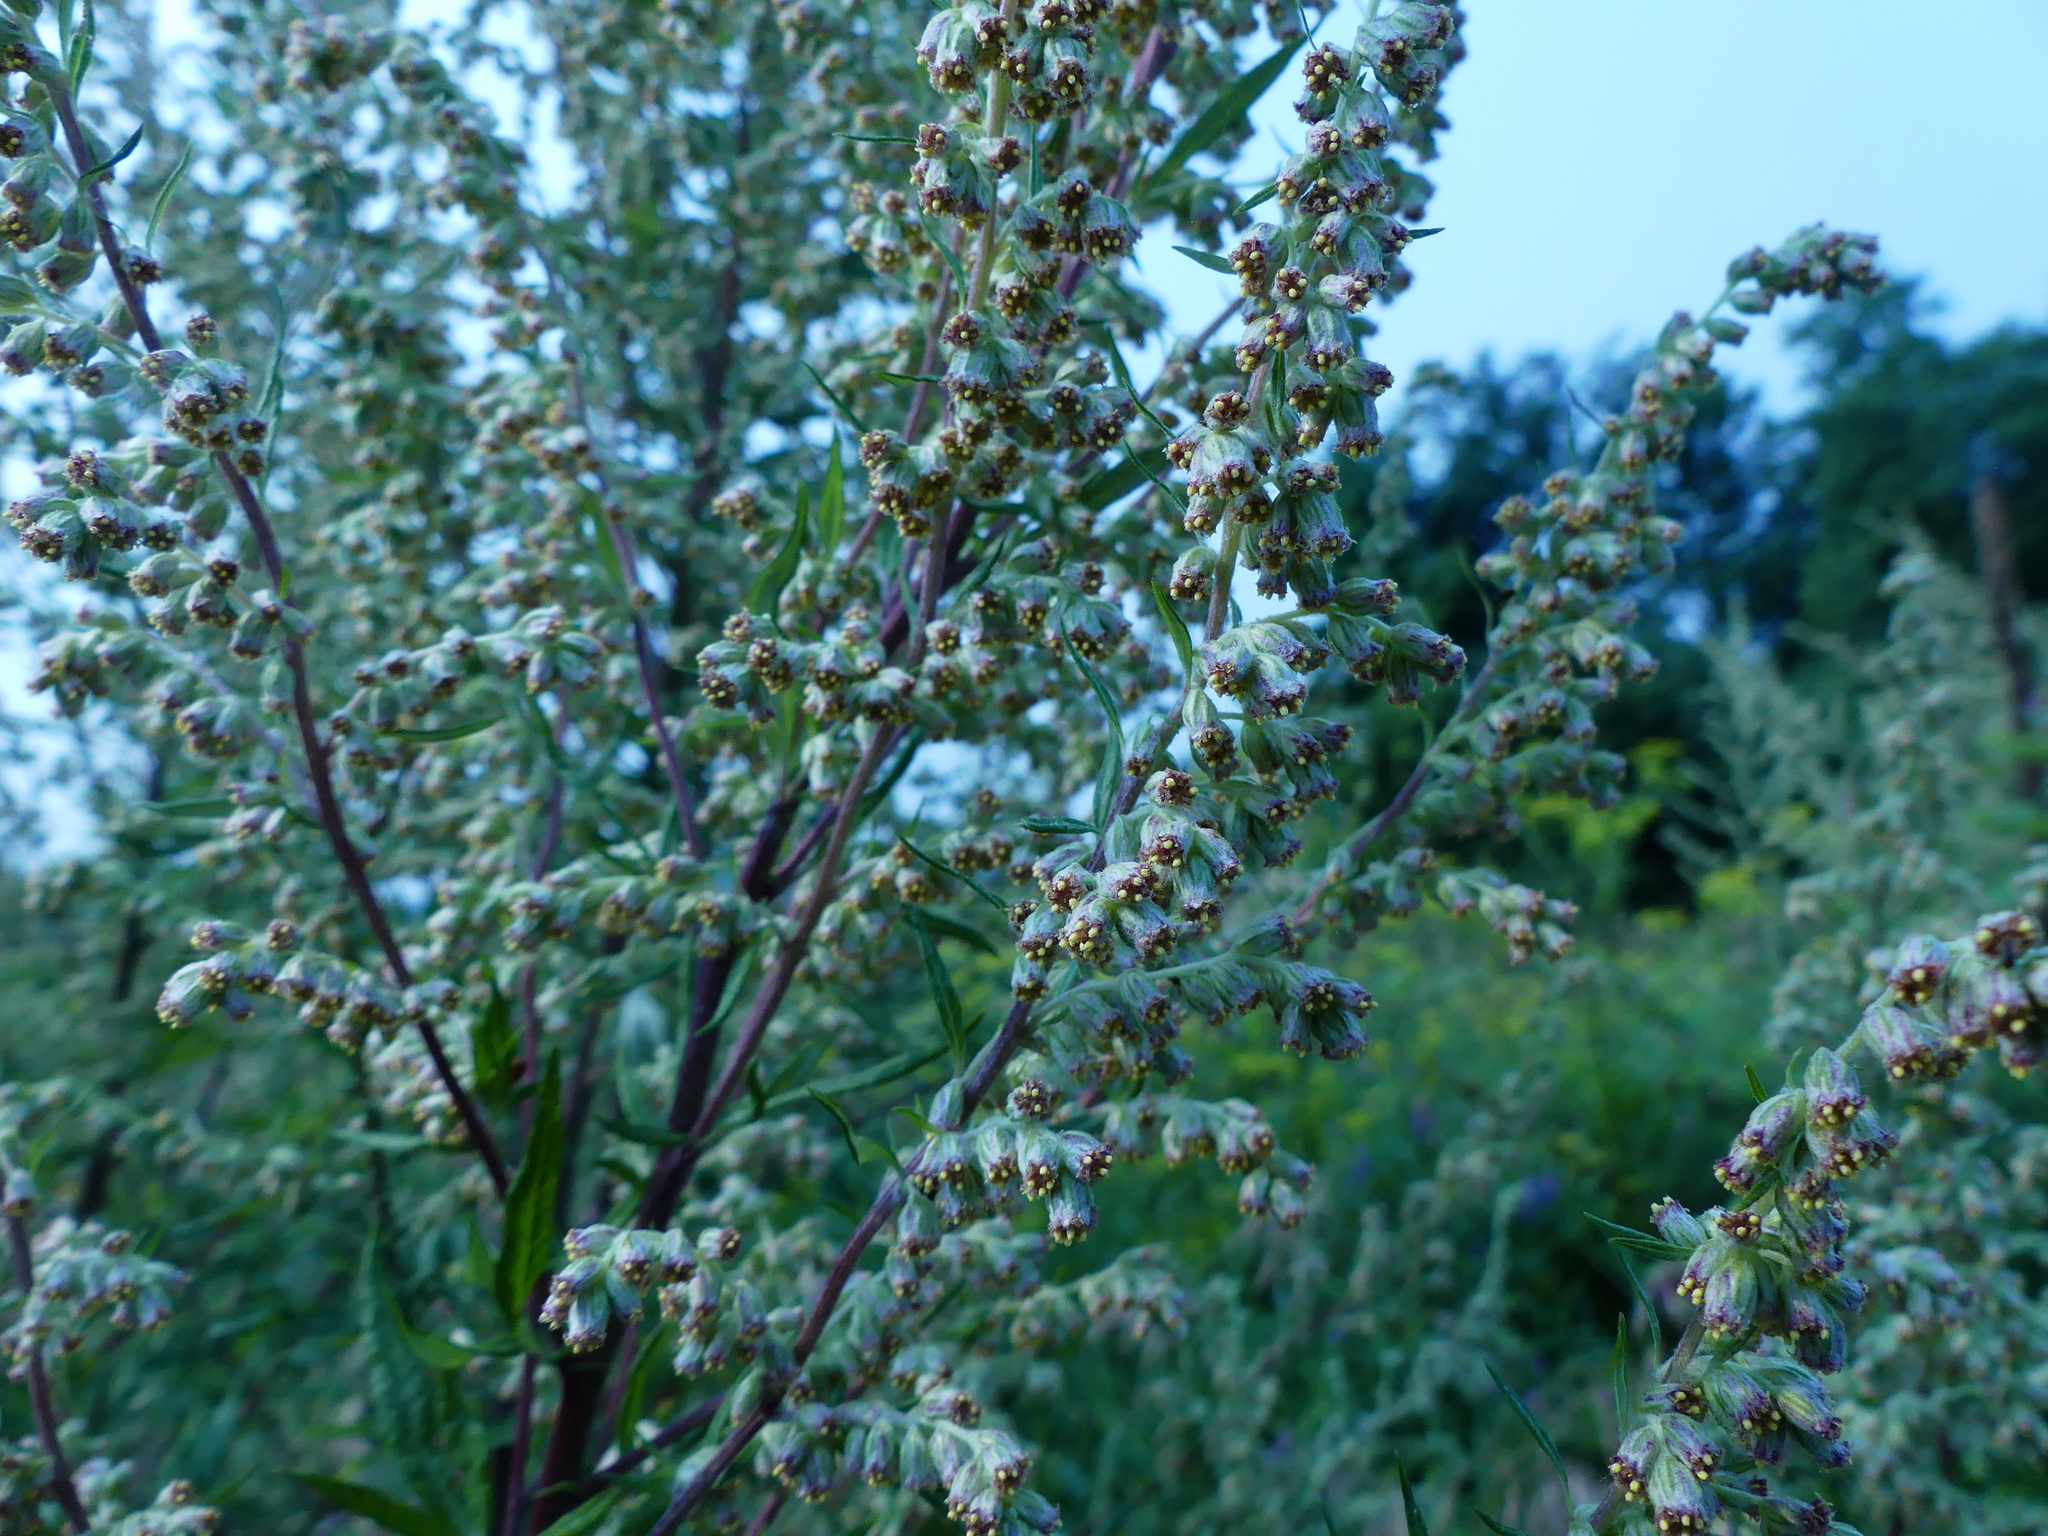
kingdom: Plantae
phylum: Tracheophyta
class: Magnoliopsida
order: Asterales
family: Asteraceae
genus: Artemisia
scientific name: Artemisia vulgaris
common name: Mugwort
